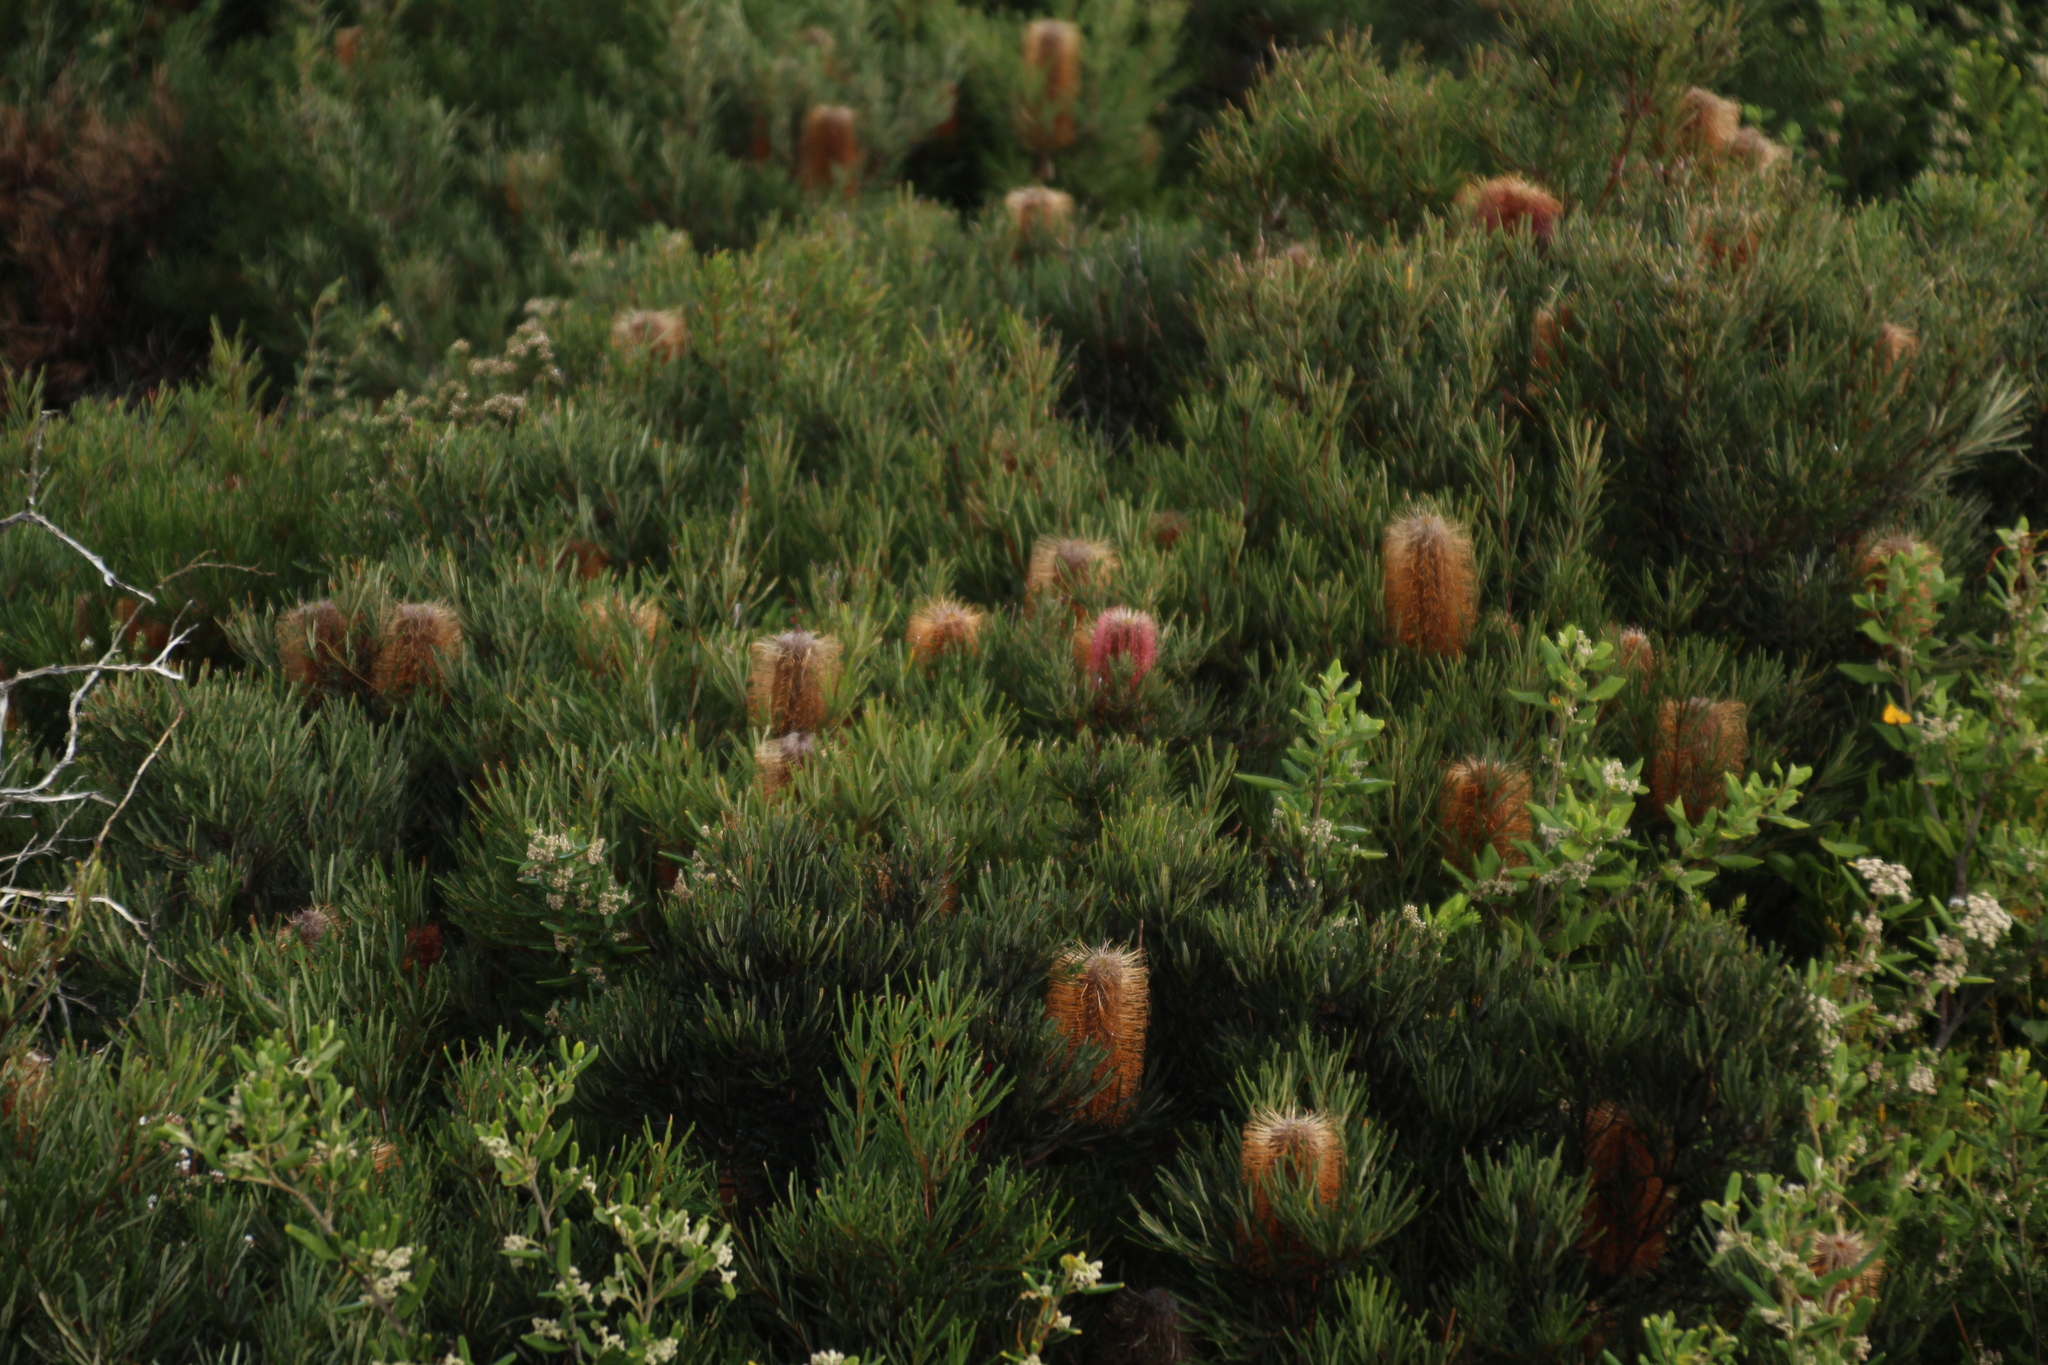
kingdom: Plantae
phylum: Tracheophyta
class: Magnoliopsida
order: Proteales
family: Proteaceae
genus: Banksia
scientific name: Banksia occidentalis
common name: Red swamp banksia
